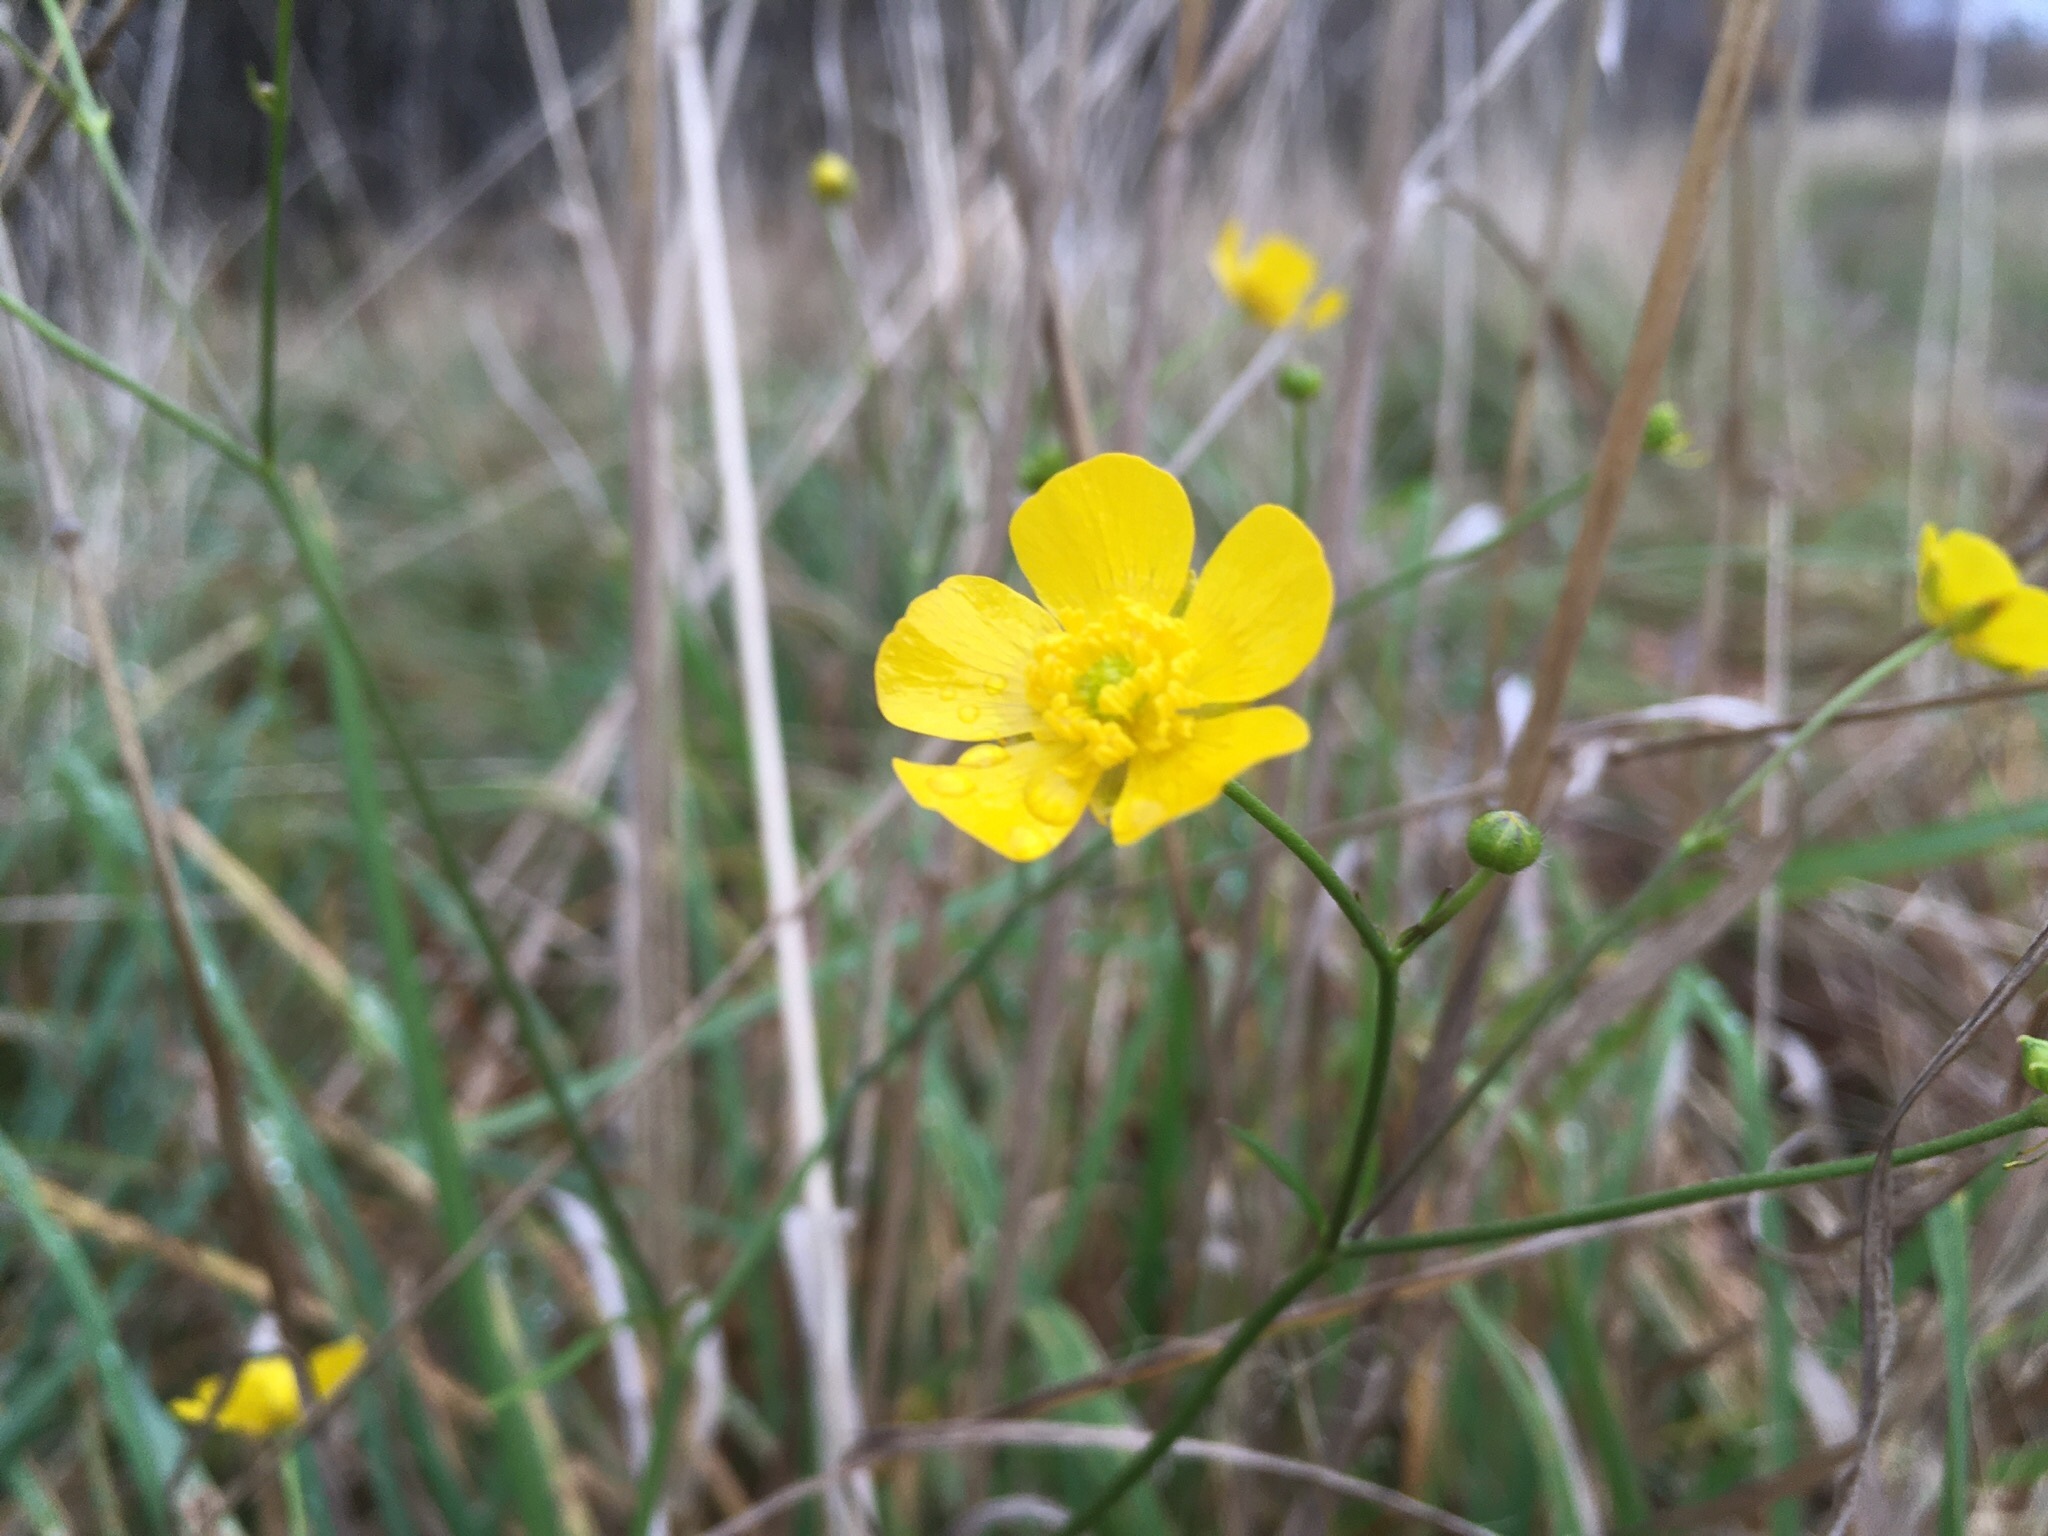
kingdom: Plantae
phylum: Tracheophyta
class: Magnoliopsida
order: Ranunculales
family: Ranunculaceae
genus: Ranunculus
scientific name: Ranunculus acris
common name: Meadow buttercup
